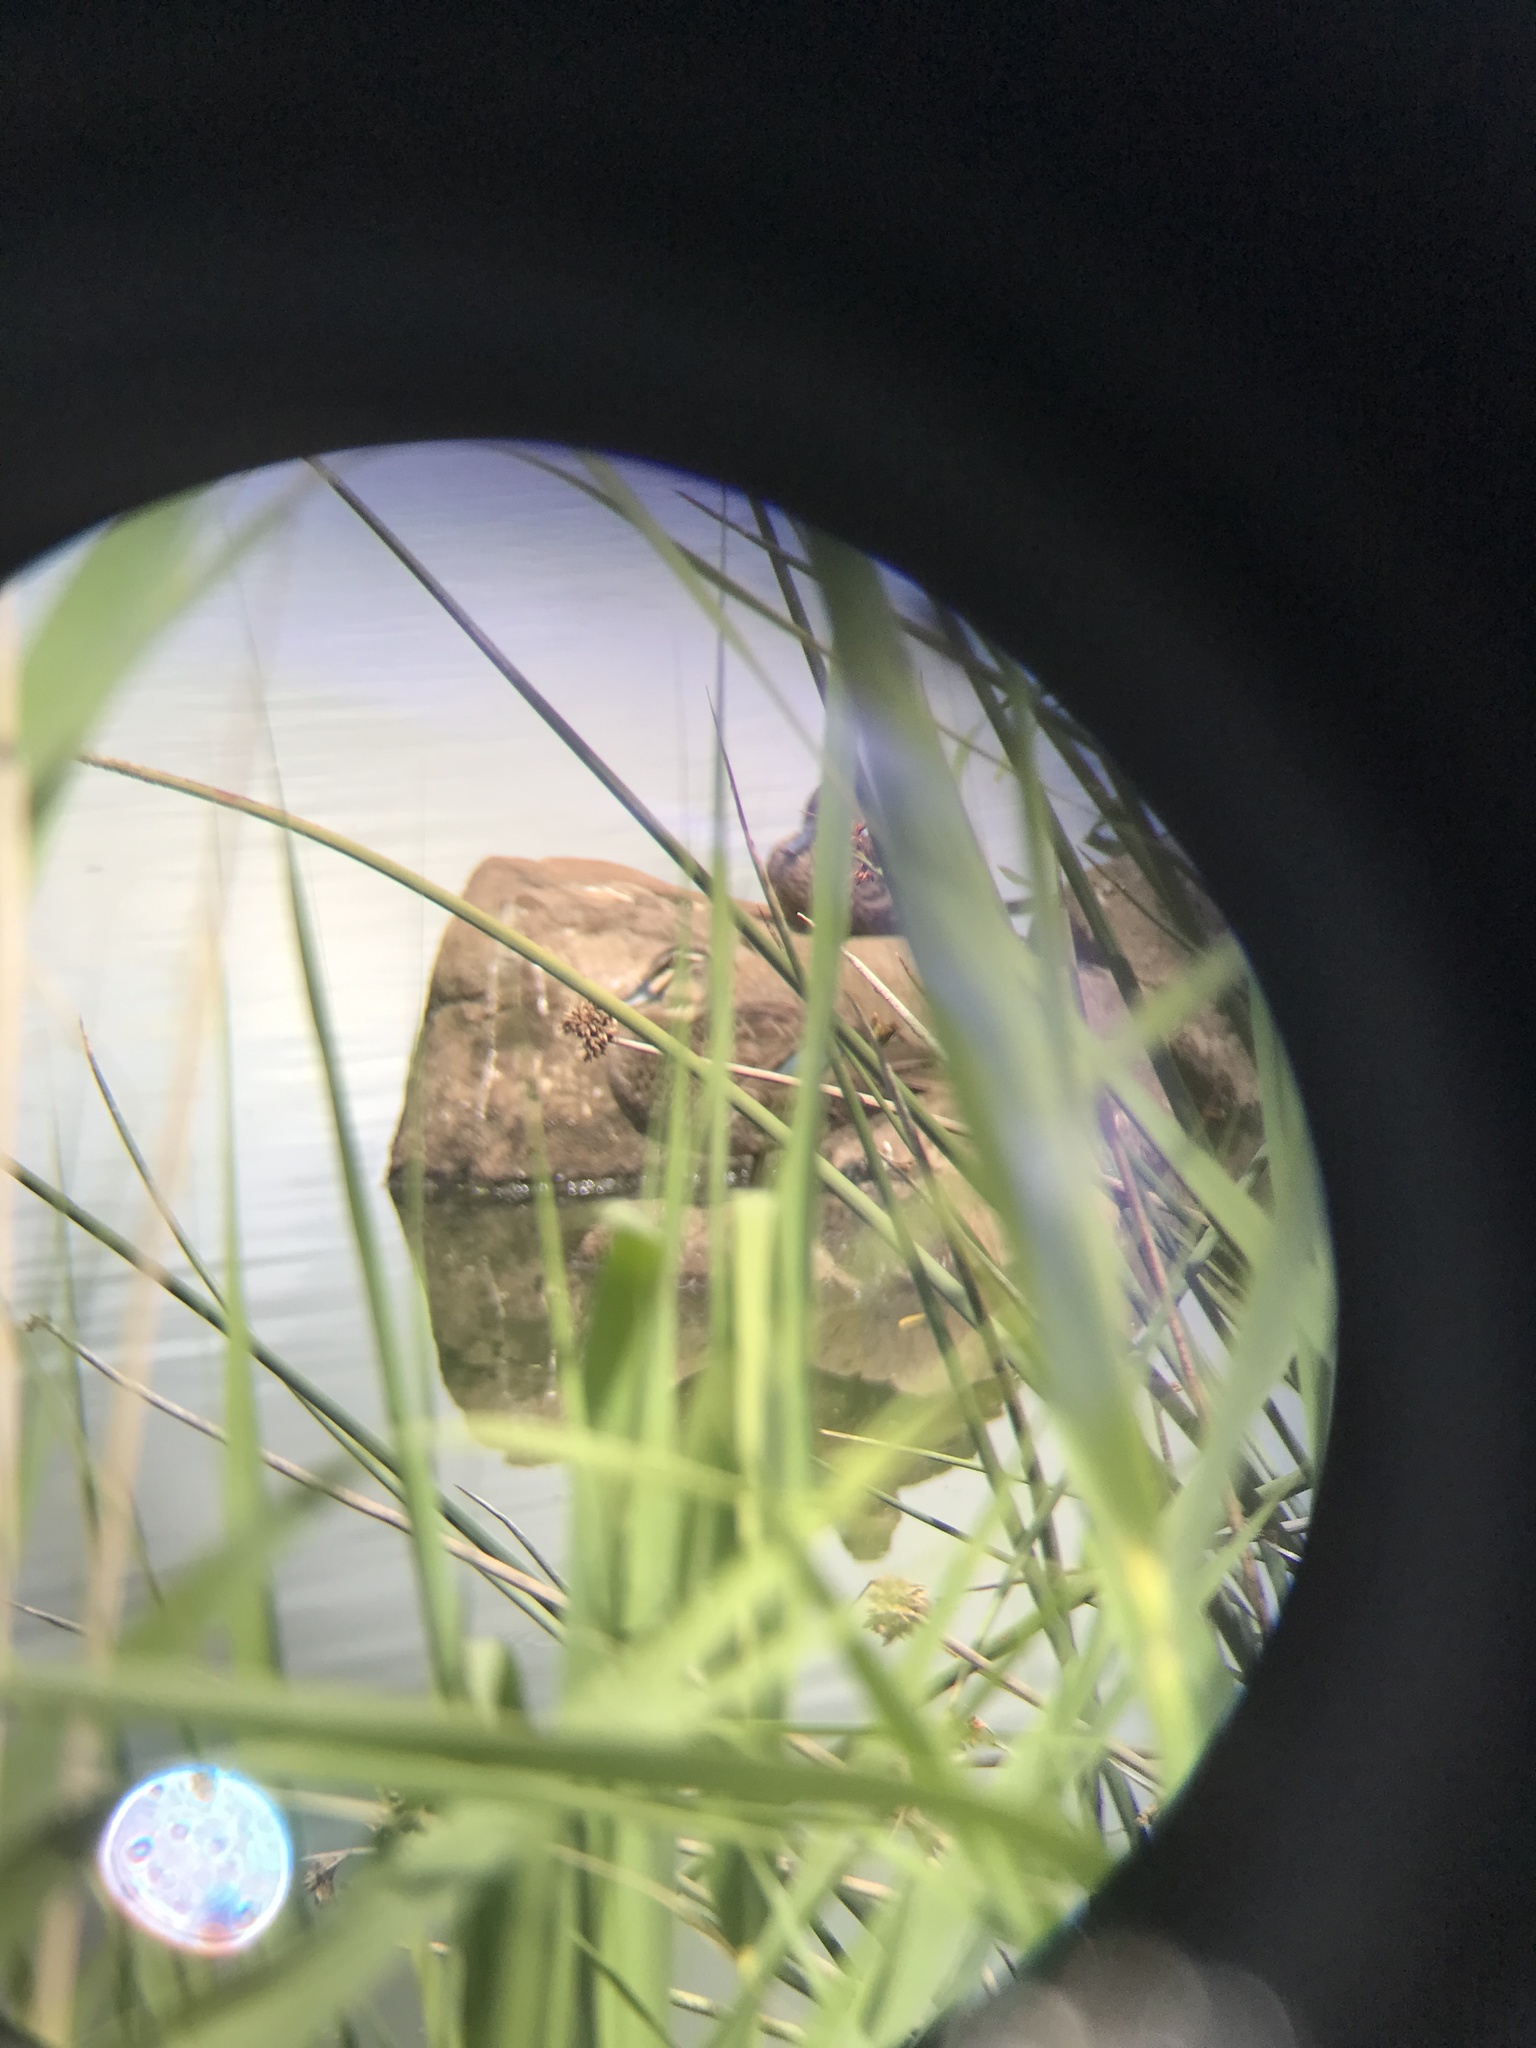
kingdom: Animalia
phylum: Chordata
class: Aves
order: Anseriformes
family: Anatidae
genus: Anas
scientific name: Anas superciliosa
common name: Pacific black duck
